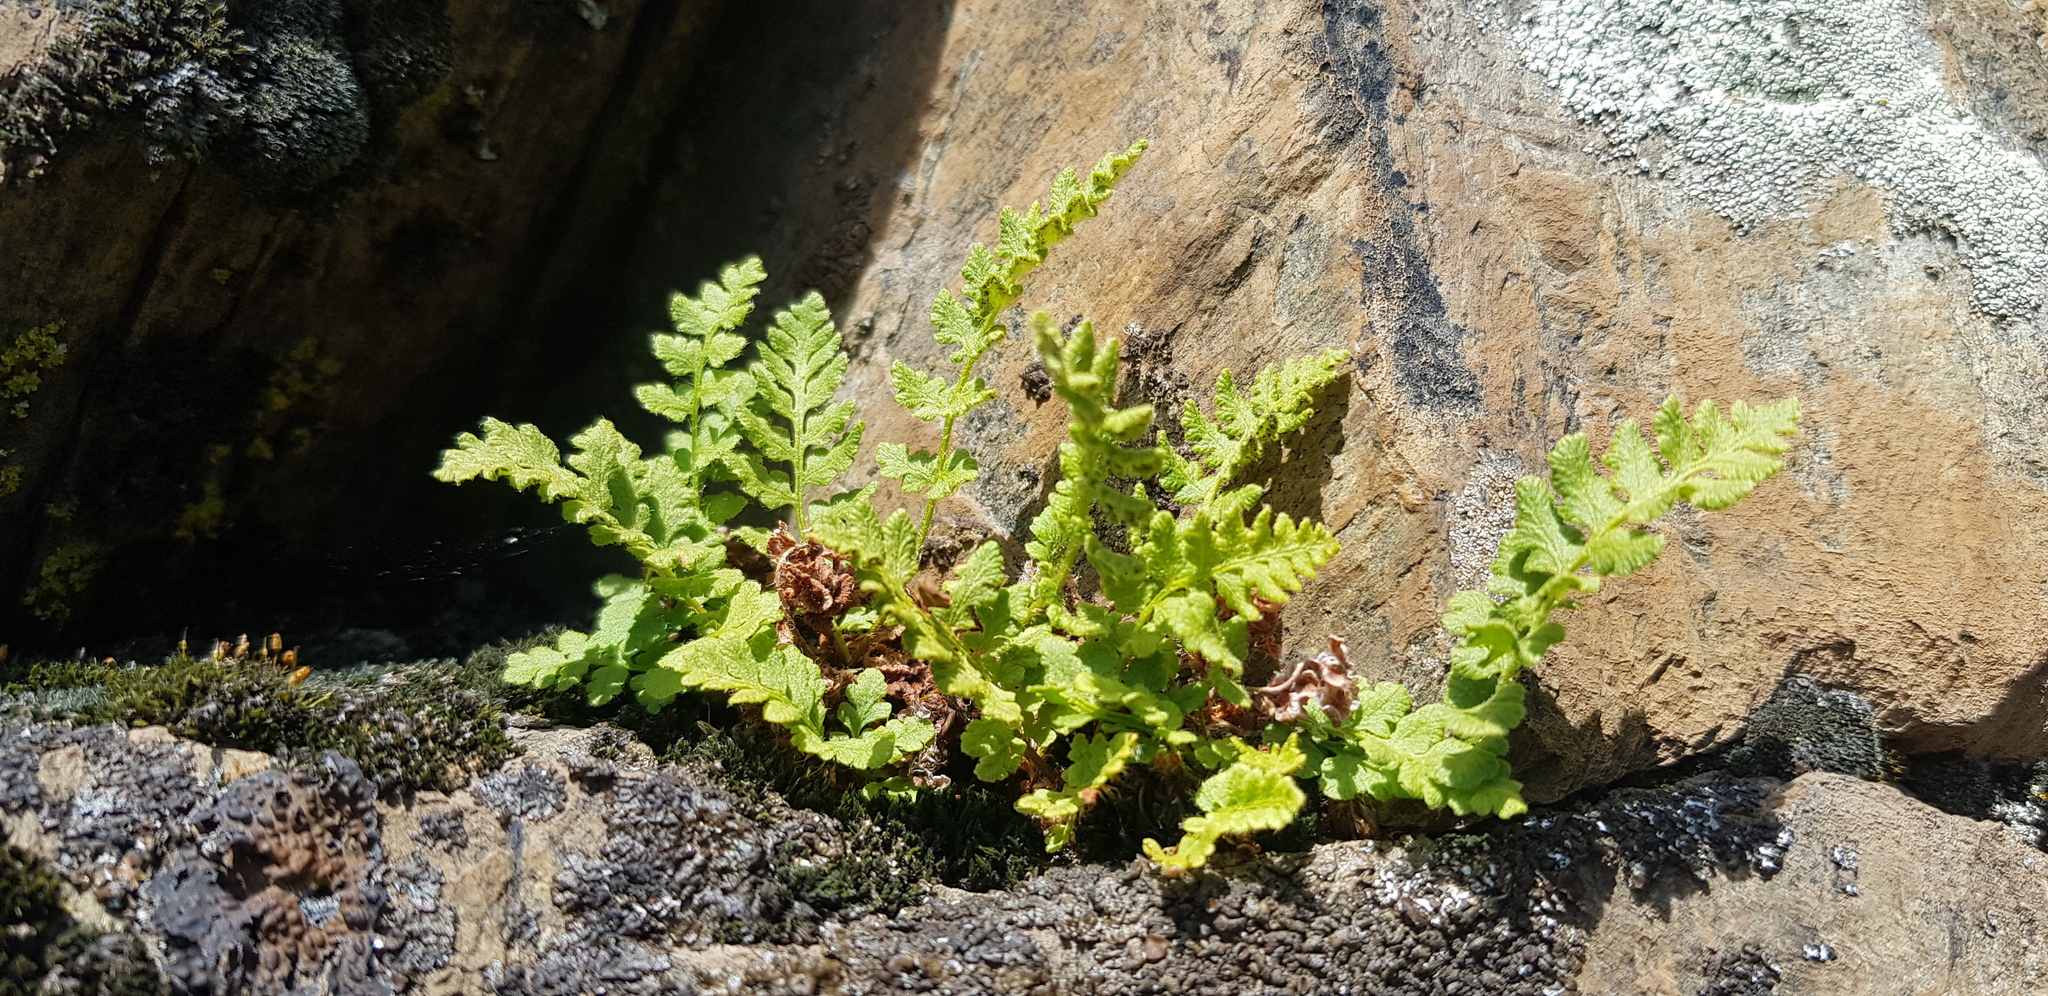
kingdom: Plantae
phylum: Tracheophyta
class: Polypodiopsida
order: Polypodiales
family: Woodsiaceae
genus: Woodsia
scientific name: Woodsia glabella
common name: Smooth woodsia
